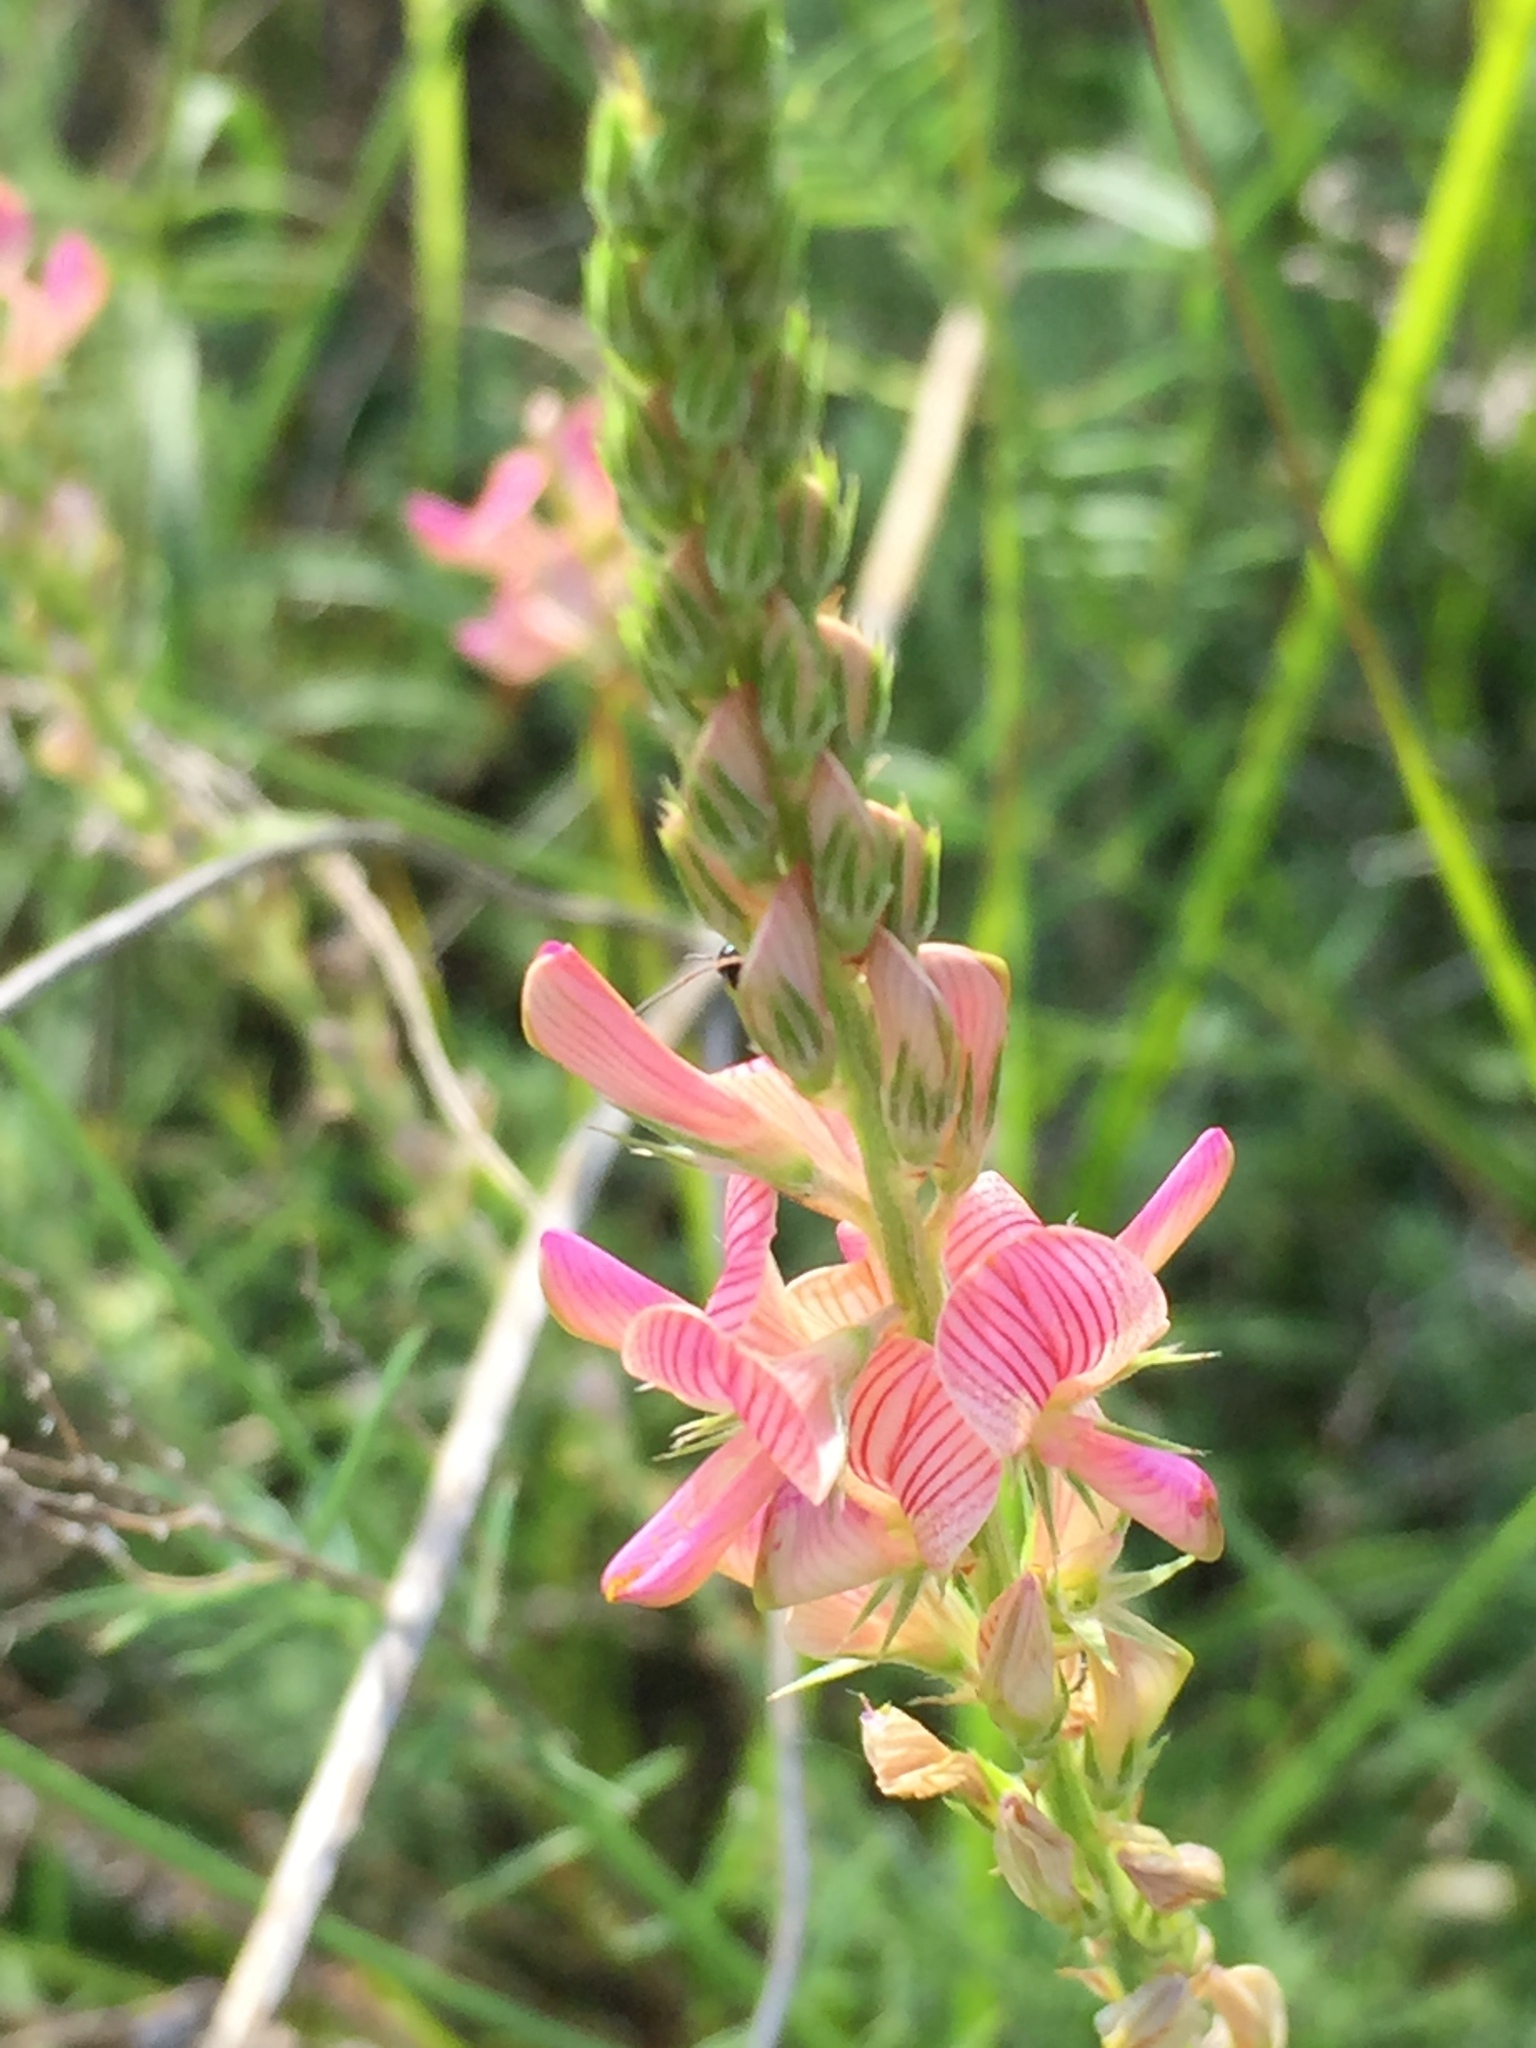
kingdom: Plantae
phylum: Tracheophyta
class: Magnoliopsida
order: Fabales
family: Fabaceae
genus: Onobrychis
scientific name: Onobrychis viciifolia
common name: Sainfoin
